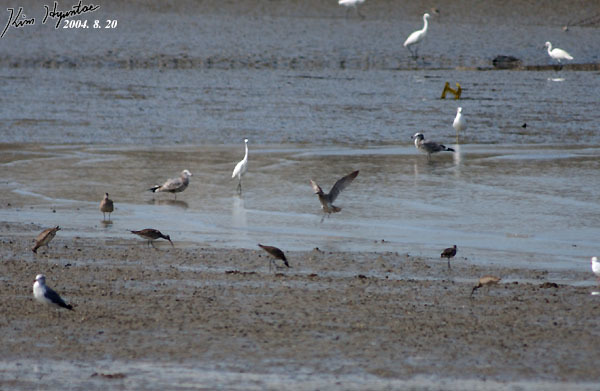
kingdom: Animalia
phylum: Chordata
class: Aves
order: Charadriiformes
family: Scolopacidae
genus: Numenius
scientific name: Numenius phaeopus
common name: Whimbrel
